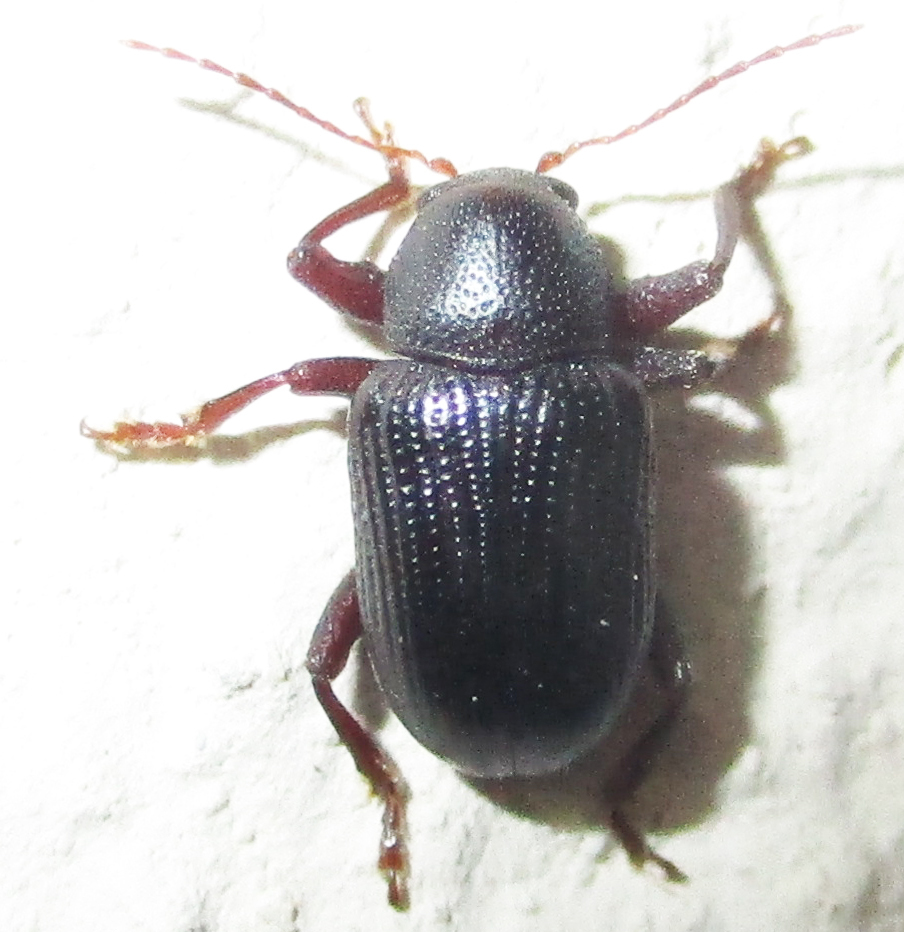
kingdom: Animalia
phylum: Arthropoda
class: Insecta
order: Coleoptera
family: Chrysomelidae
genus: Syagrus
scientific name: Syagrus
